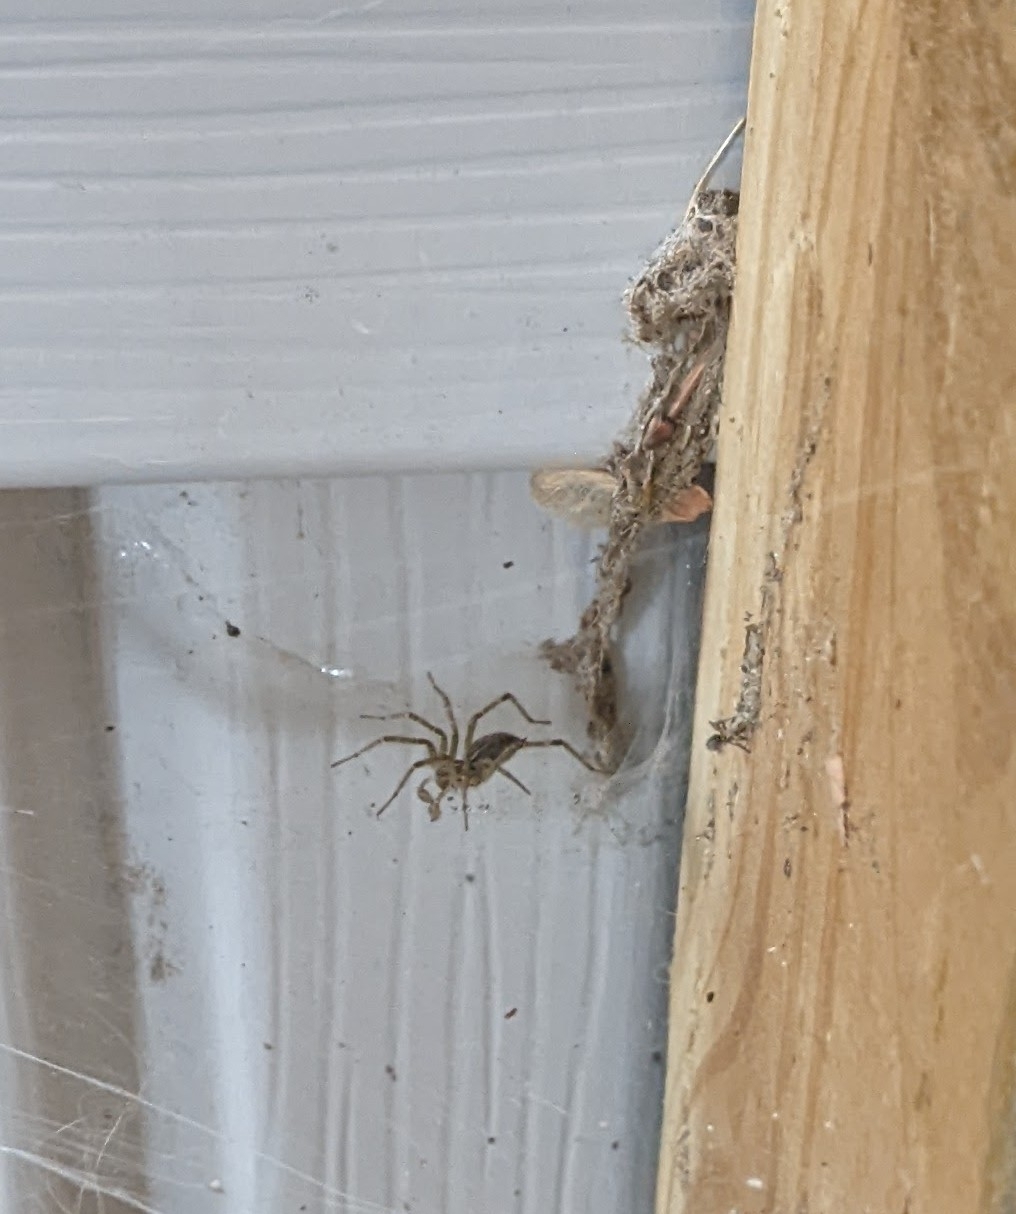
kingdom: Animalia
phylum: Arthropoda
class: Arachnida
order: Araneae
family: Agelenidae
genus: Agelenopsis
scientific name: Agelenopsis
